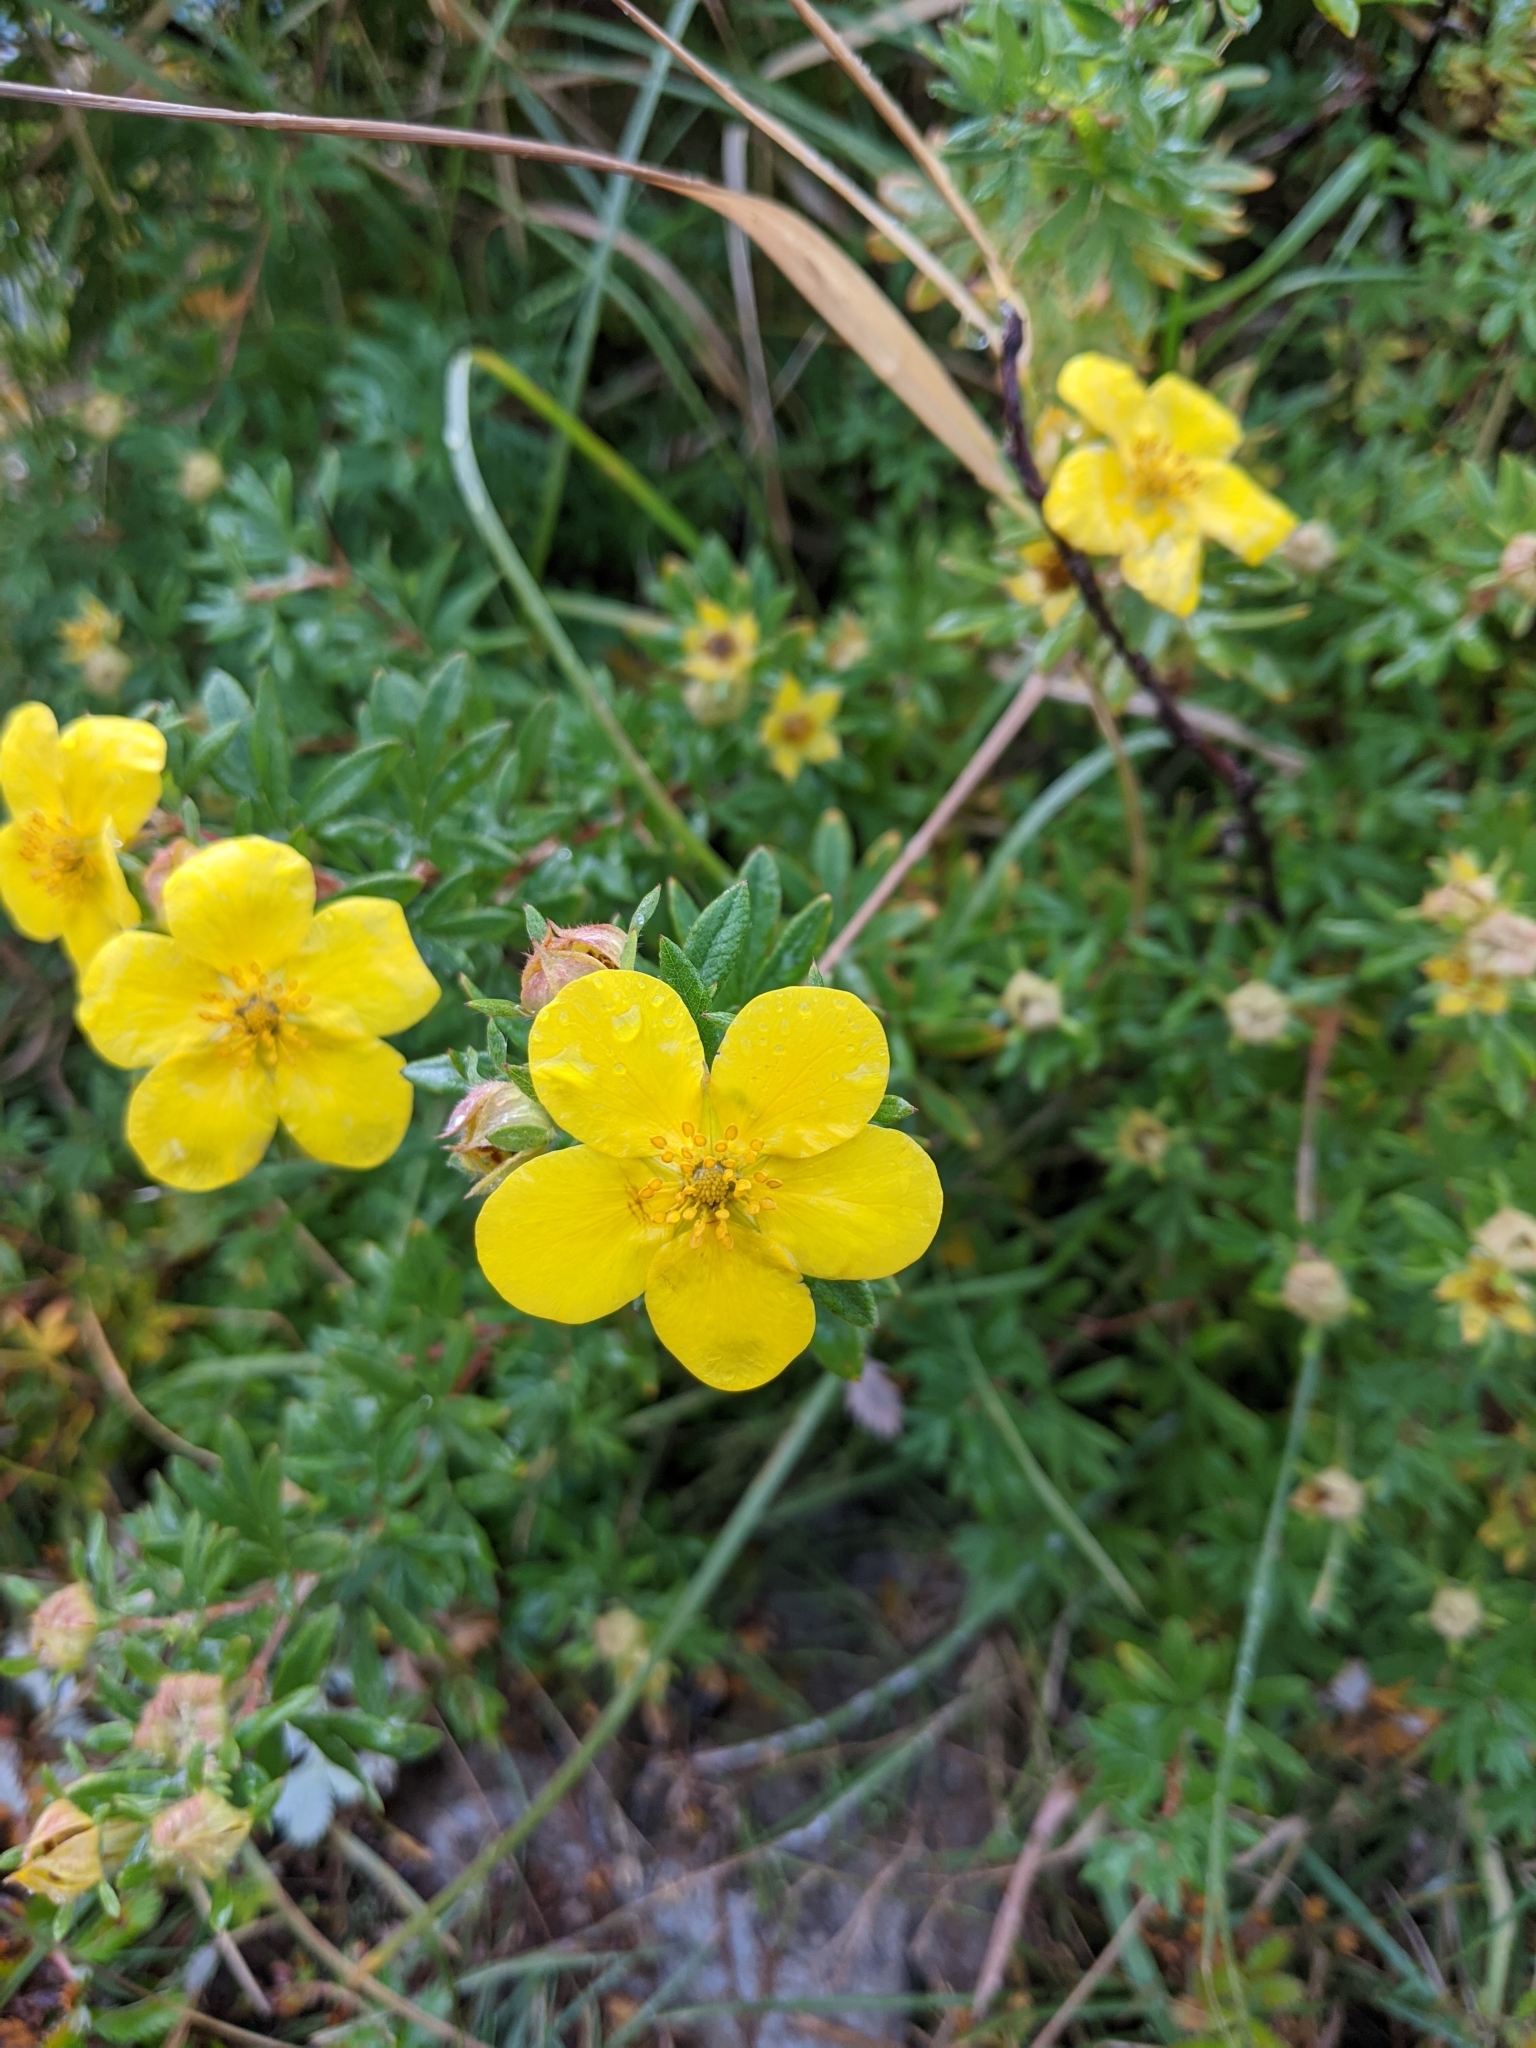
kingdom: Plantae
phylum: Tracheophyta
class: Magnoliopsida
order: Rosales
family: Rosaceae
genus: Dasiphora
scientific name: Dasiphora fruticosa
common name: Shrubby cinquefoil
